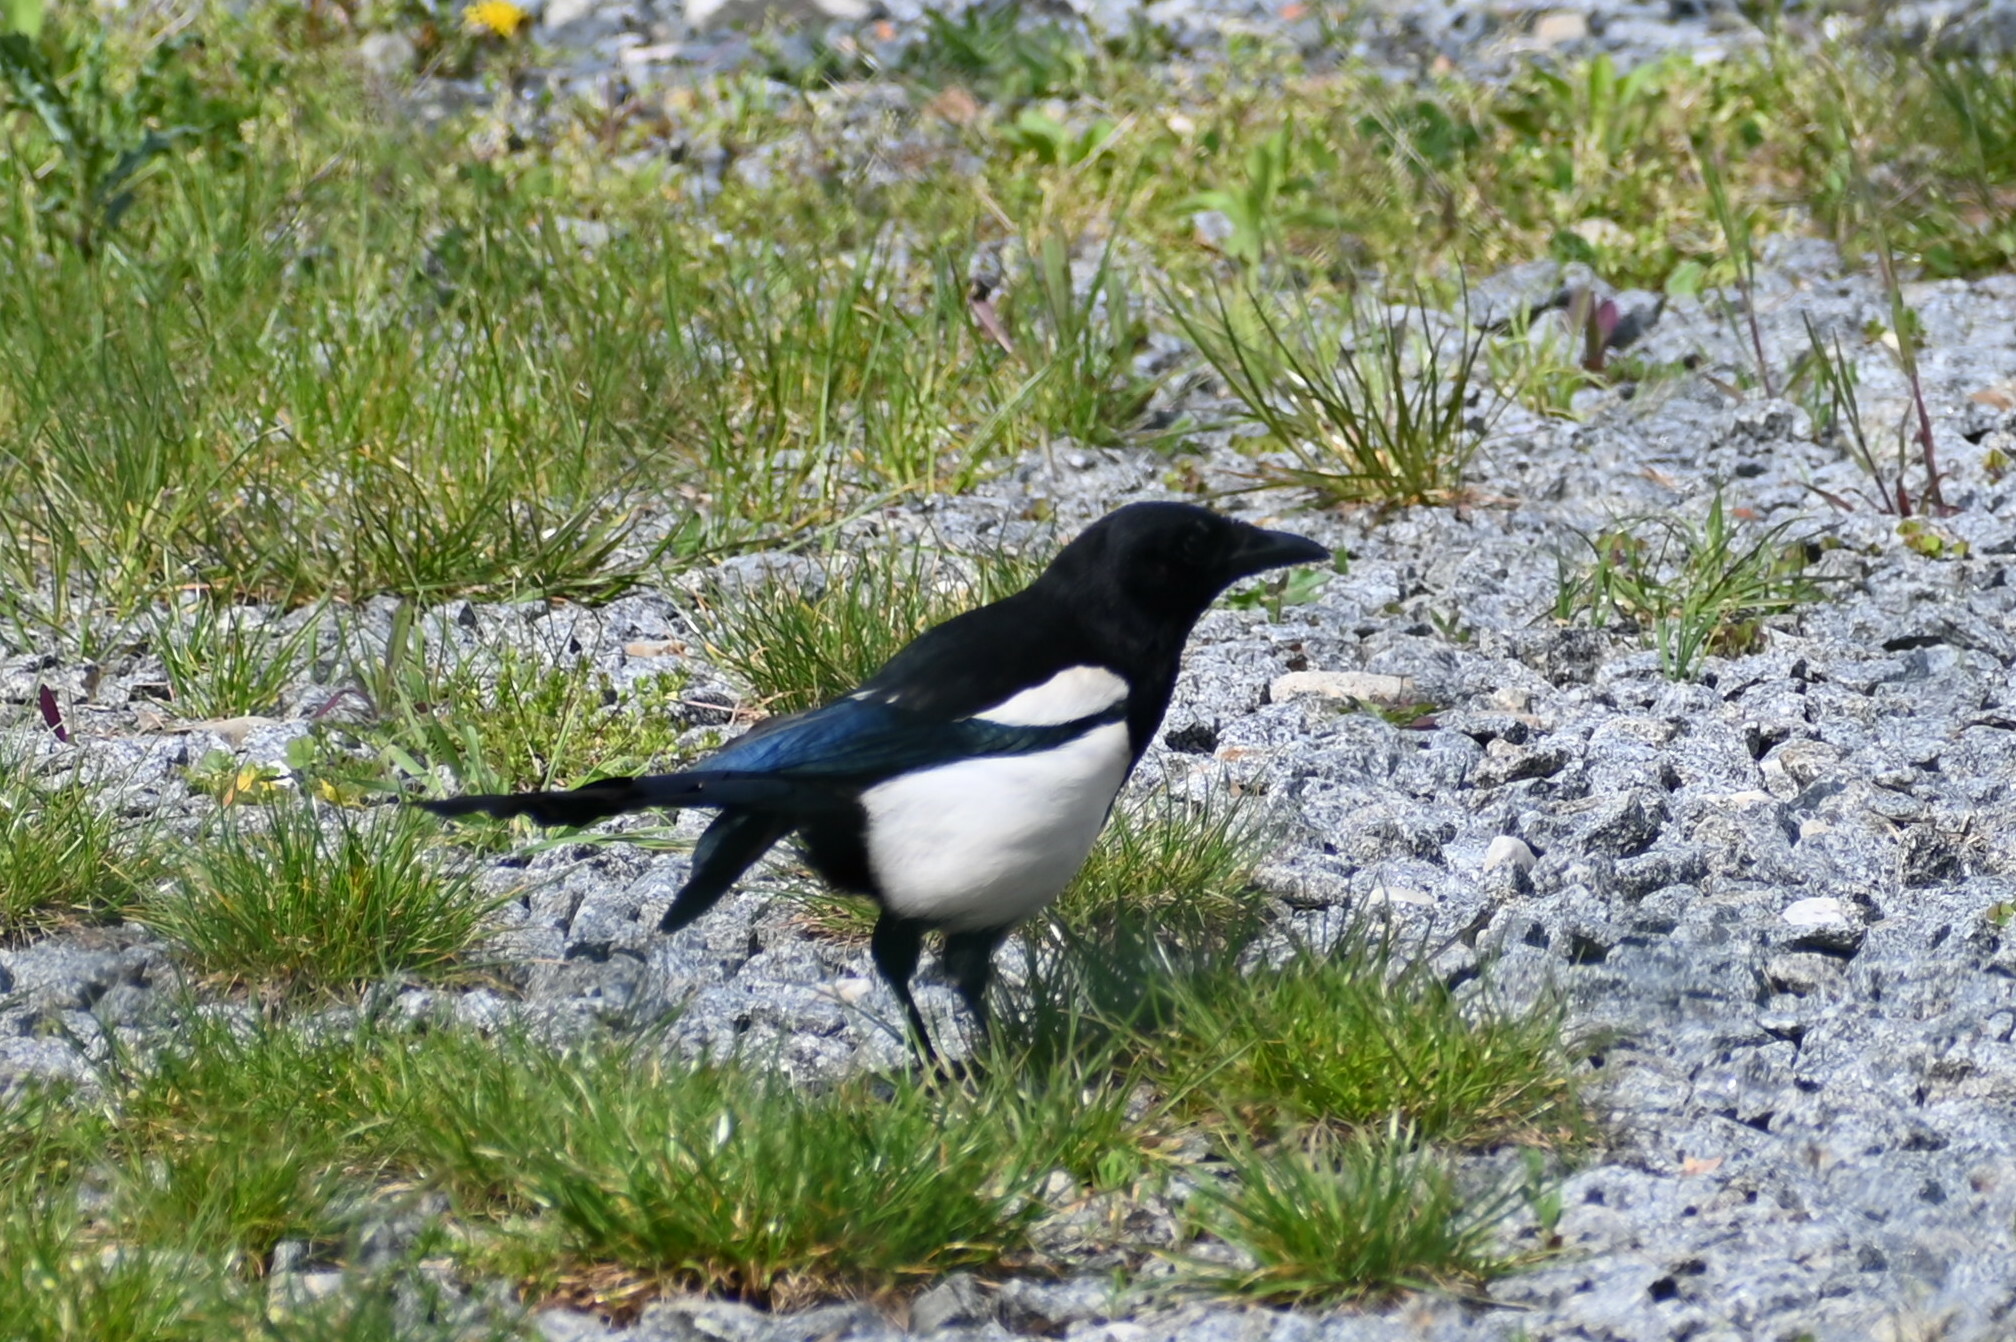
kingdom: Animalia
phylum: Chordata
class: Aves
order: Passeriformes
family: Corvidae
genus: Pica
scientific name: Pica pica
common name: Eurasian magpie
